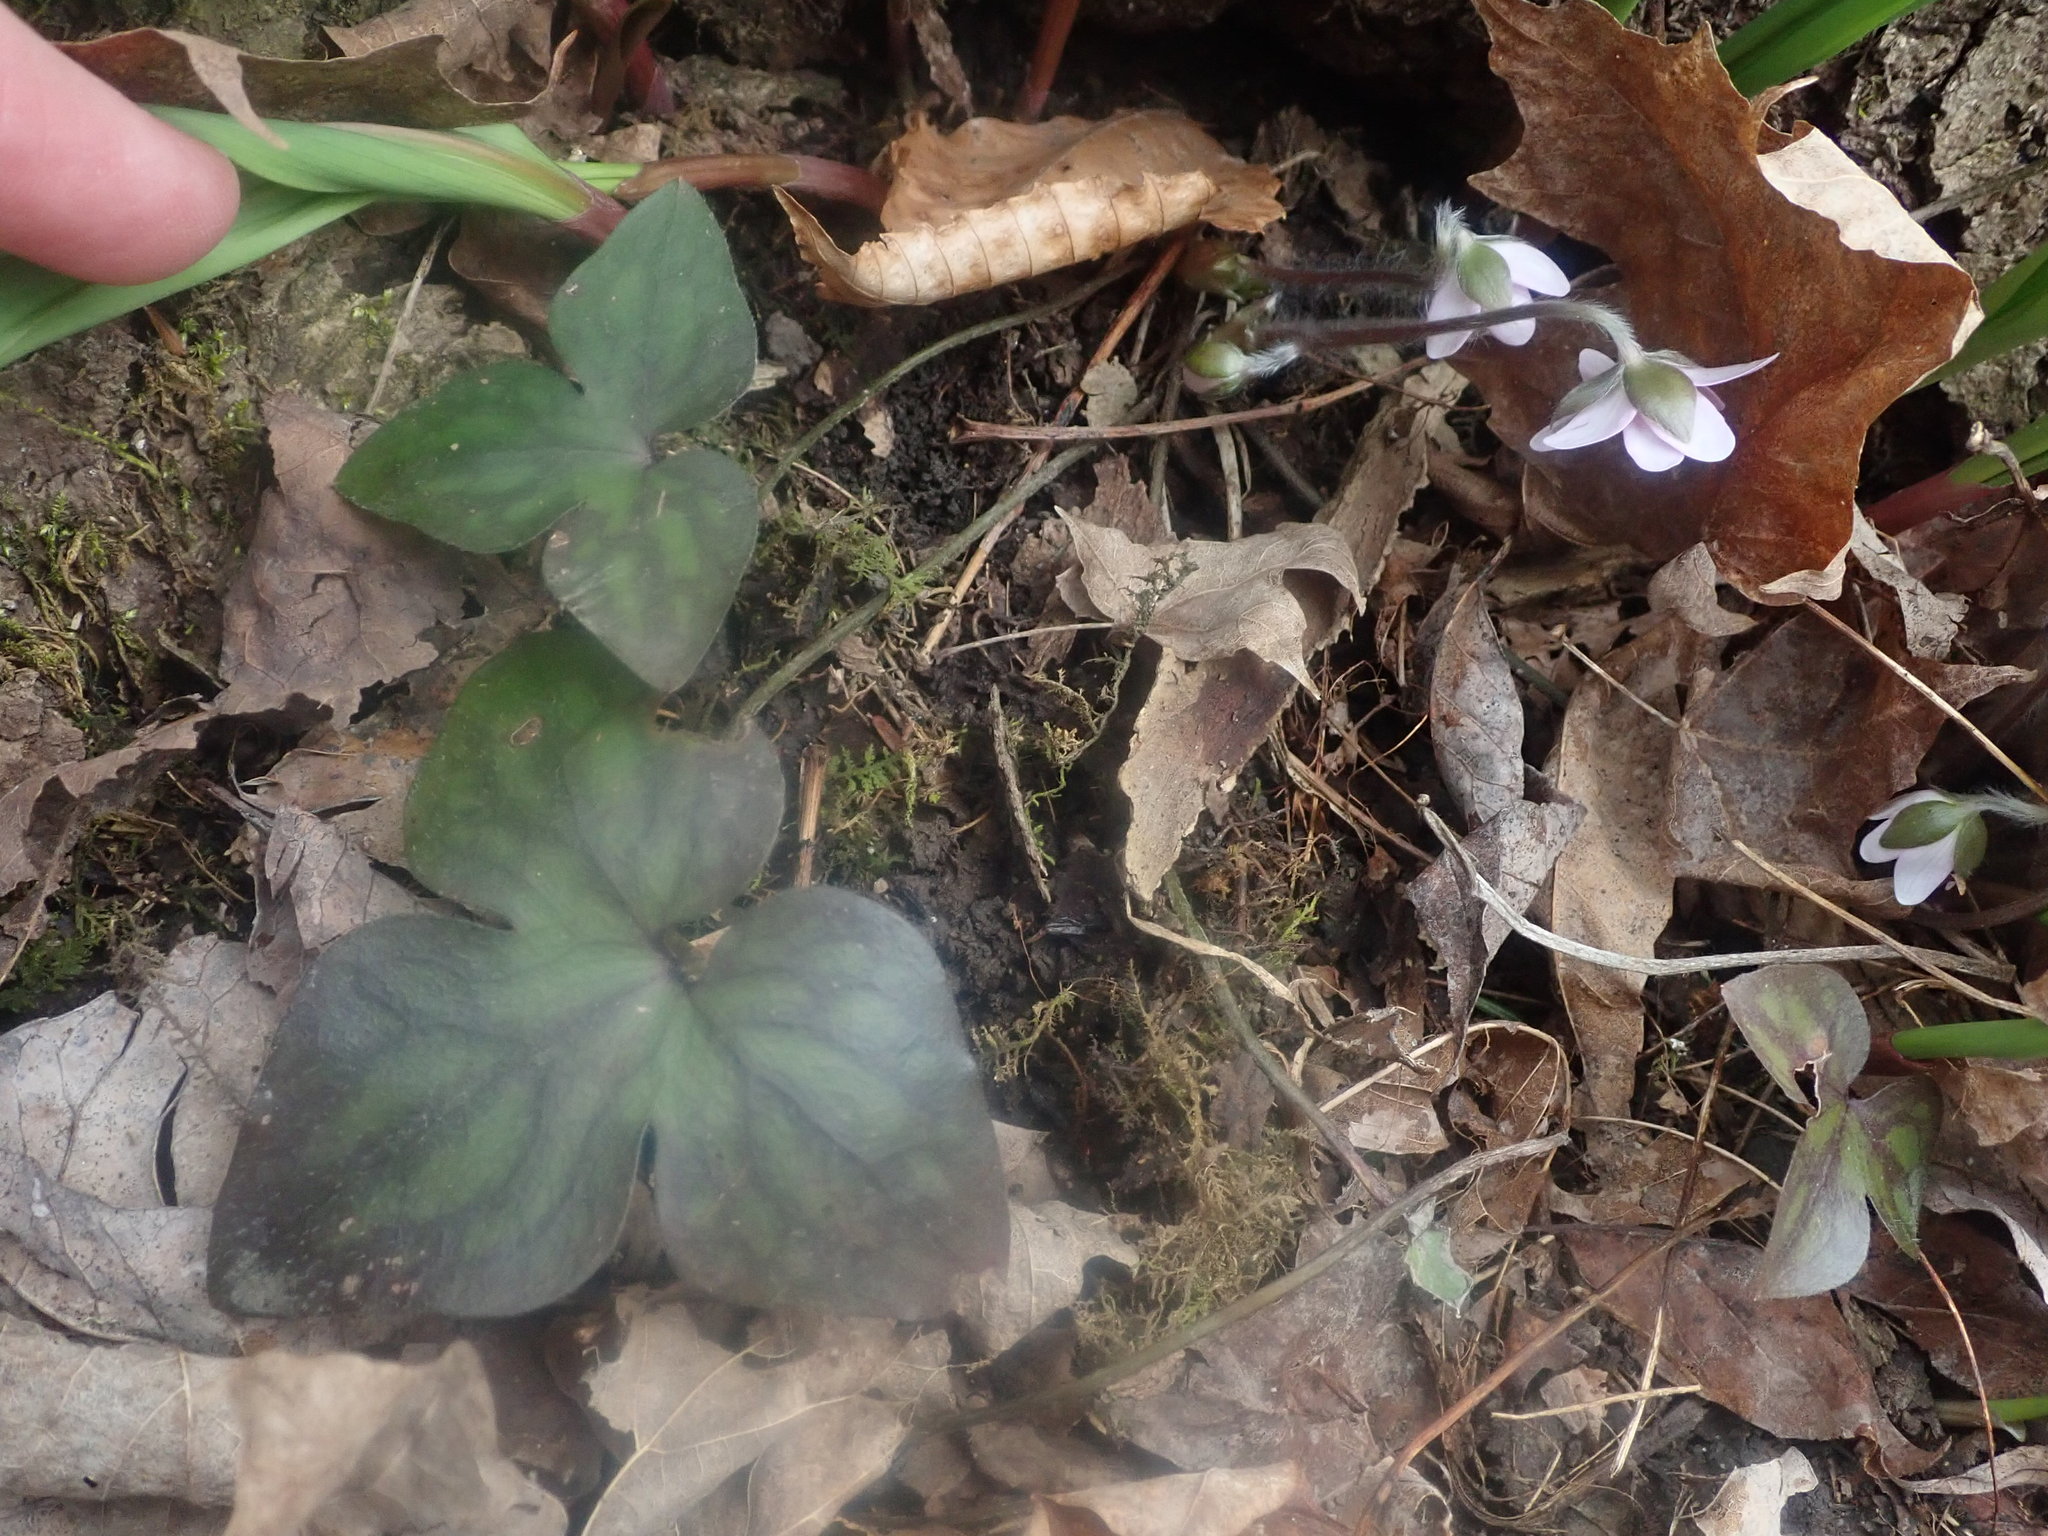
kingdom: Plantae
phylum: Tracheophyta
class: Magnoliopsida
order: Ranunculales
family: Ranunculaceae
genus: Hepatica
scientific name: Hepatica acutiloba
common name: Sharp-lobed hepatica
